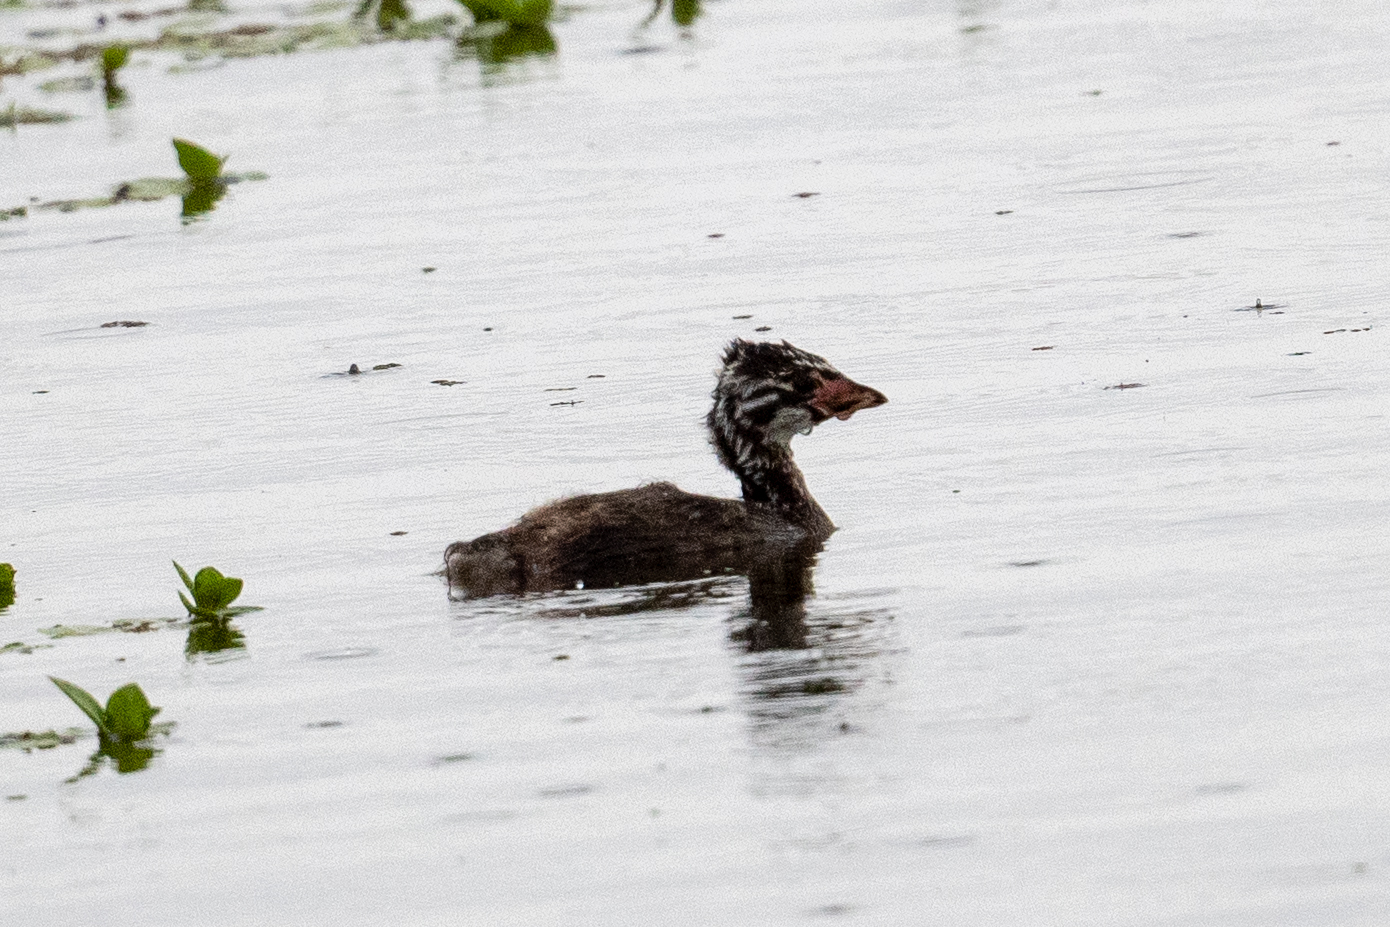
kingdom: Animalia
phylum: Chordata
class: Aves
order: Podicipediformes
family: Podicipedidae
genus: Podilymbus
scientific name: Podilymbus podiceps
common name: Pied-billed grebe
